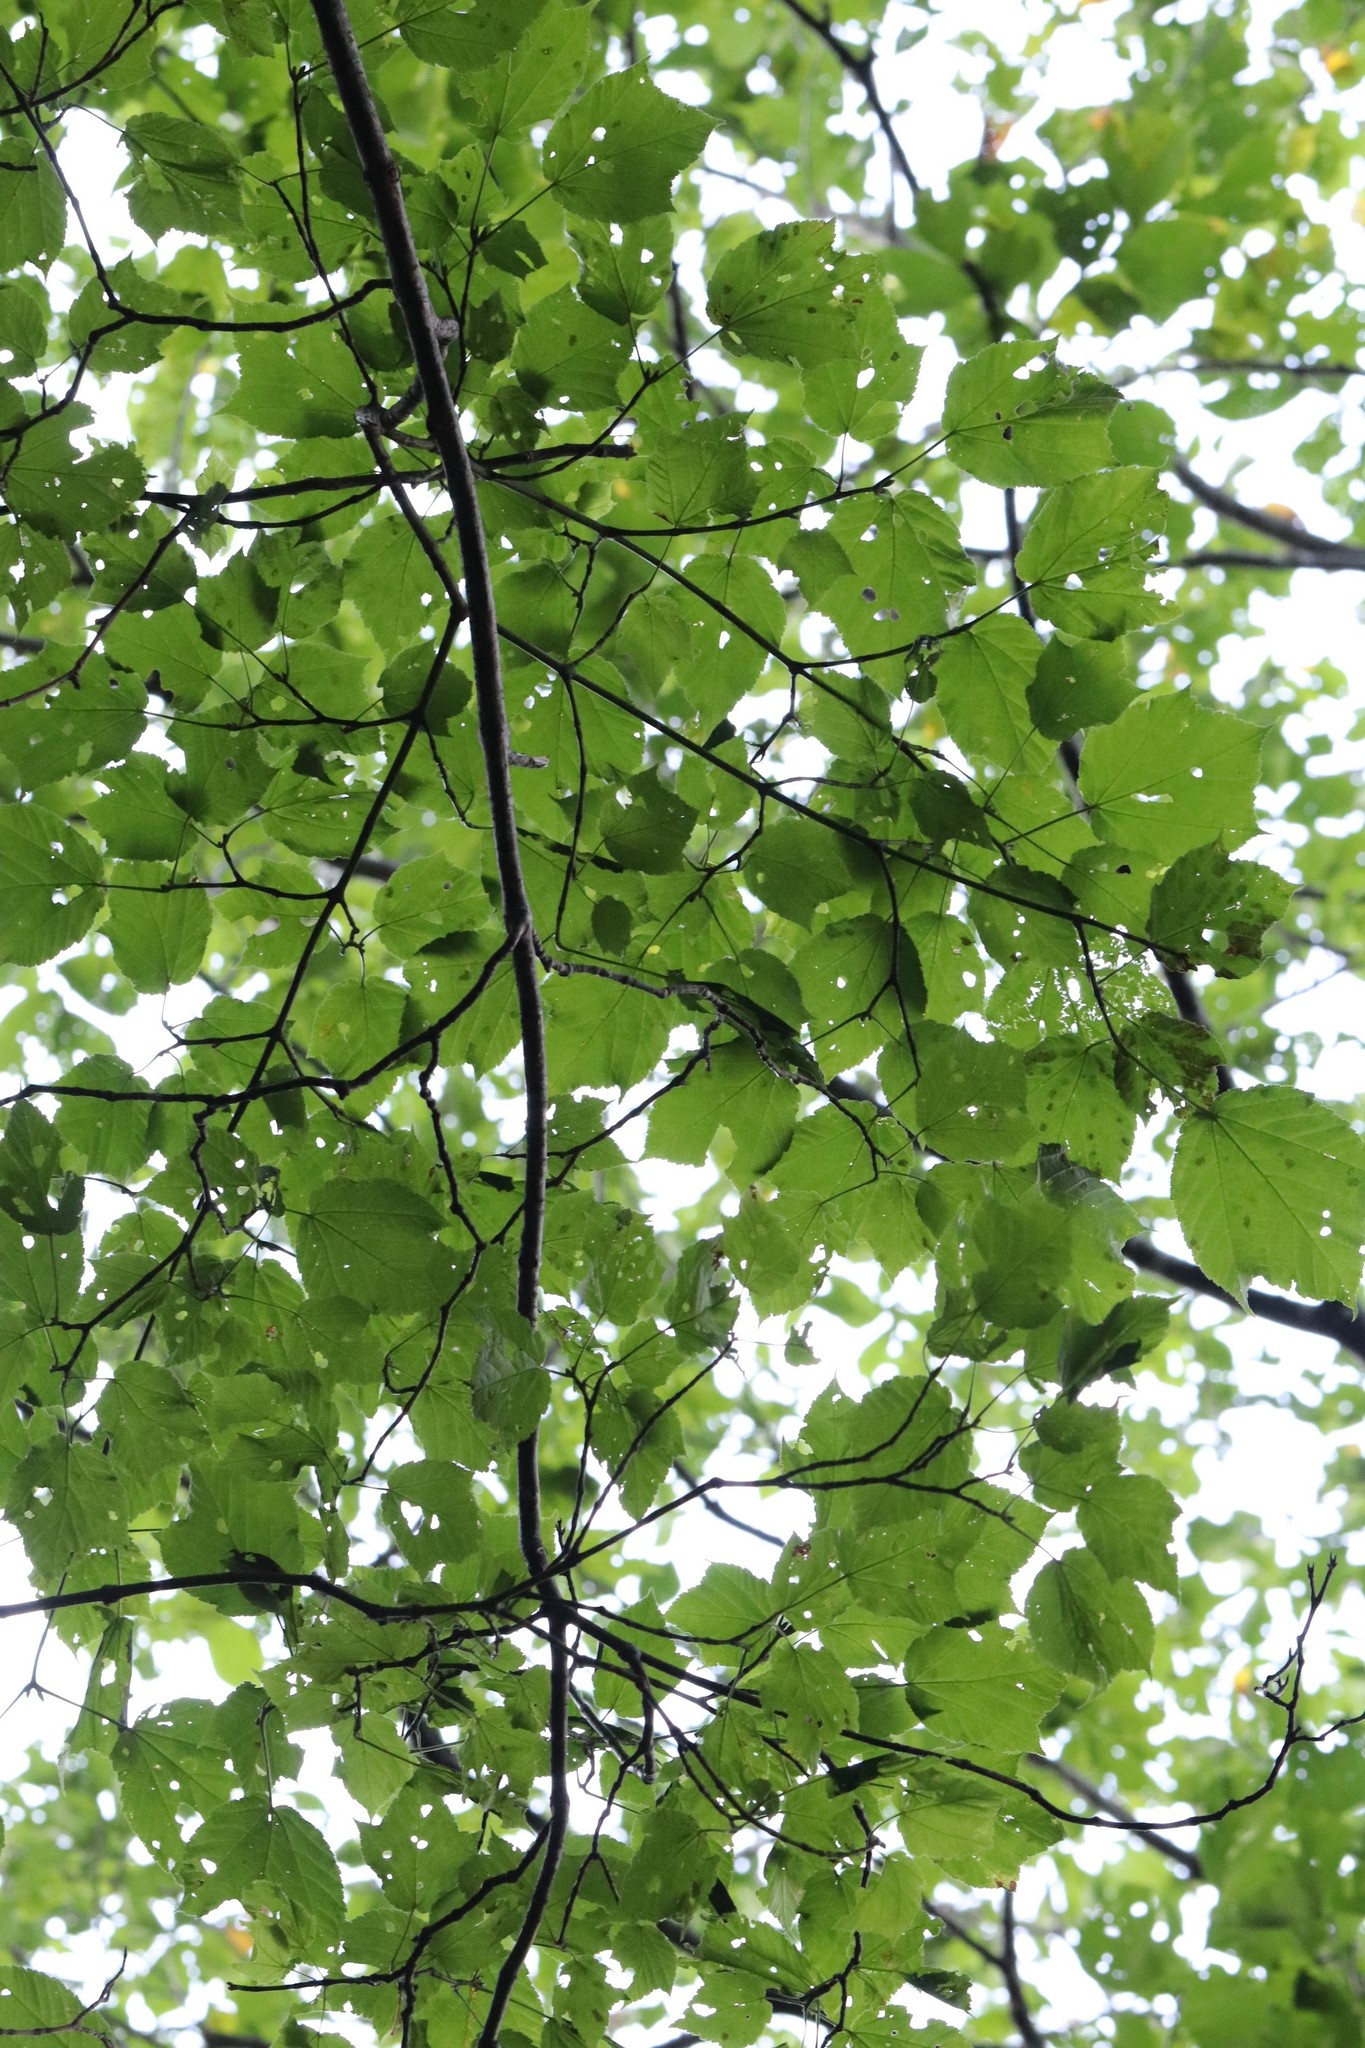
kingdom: Plantae
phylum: Tracheophyta
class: Magnoliopsida
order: Sapindales
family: Sapindaceae
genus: Acer
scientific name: Acer tegmentosum
